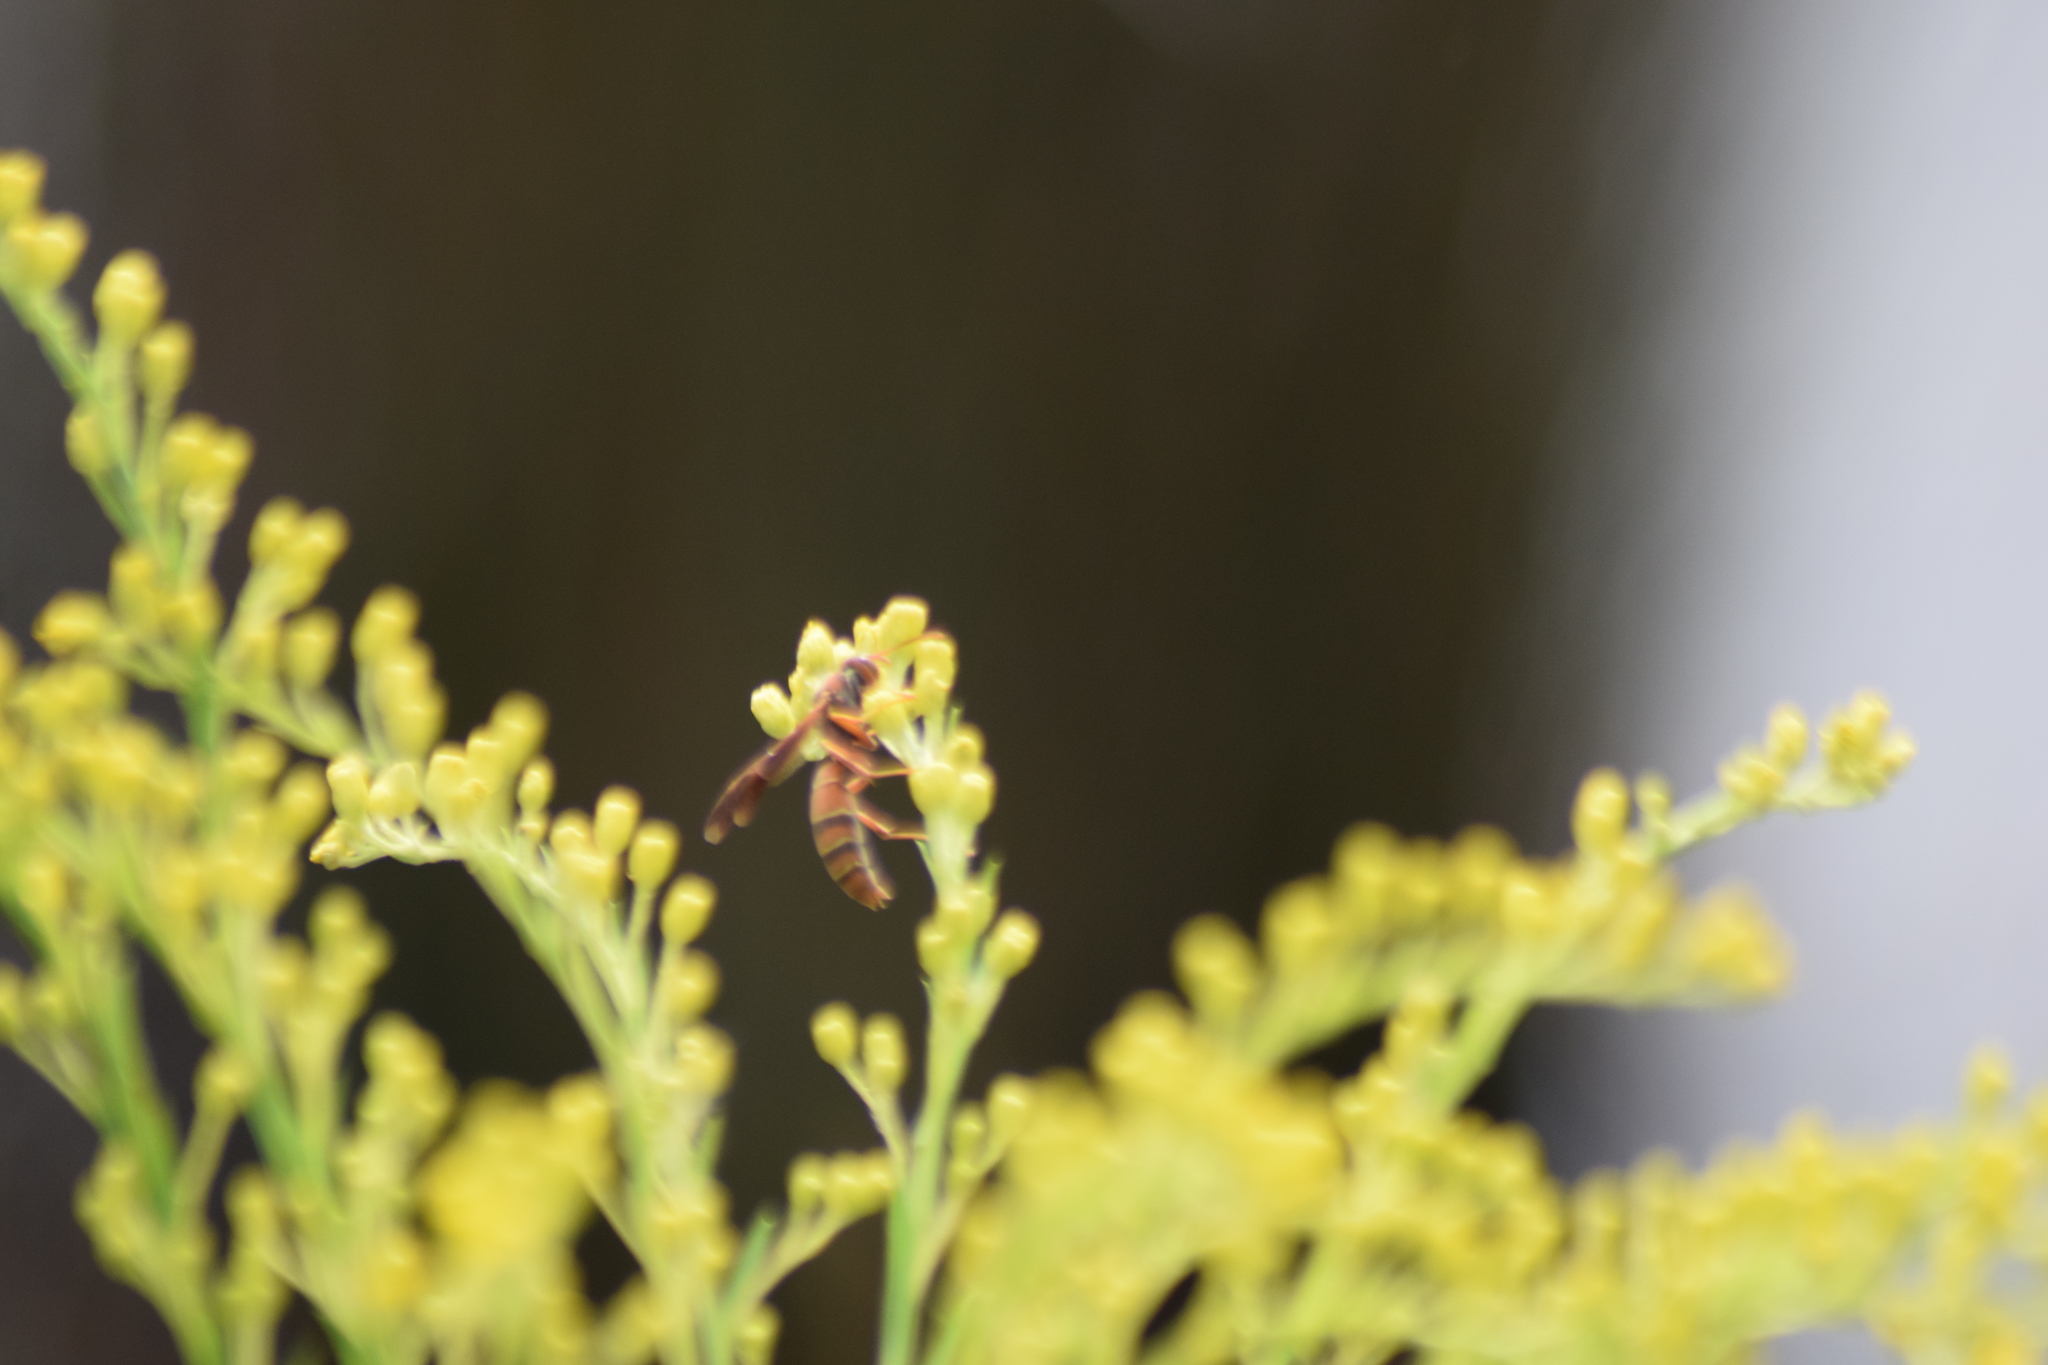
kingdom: Animalia
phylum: Arthropoda
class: Insecta
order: Hymenoptera
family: Vespidae
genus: Fuscopolistes
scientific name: Fuscopolistes
